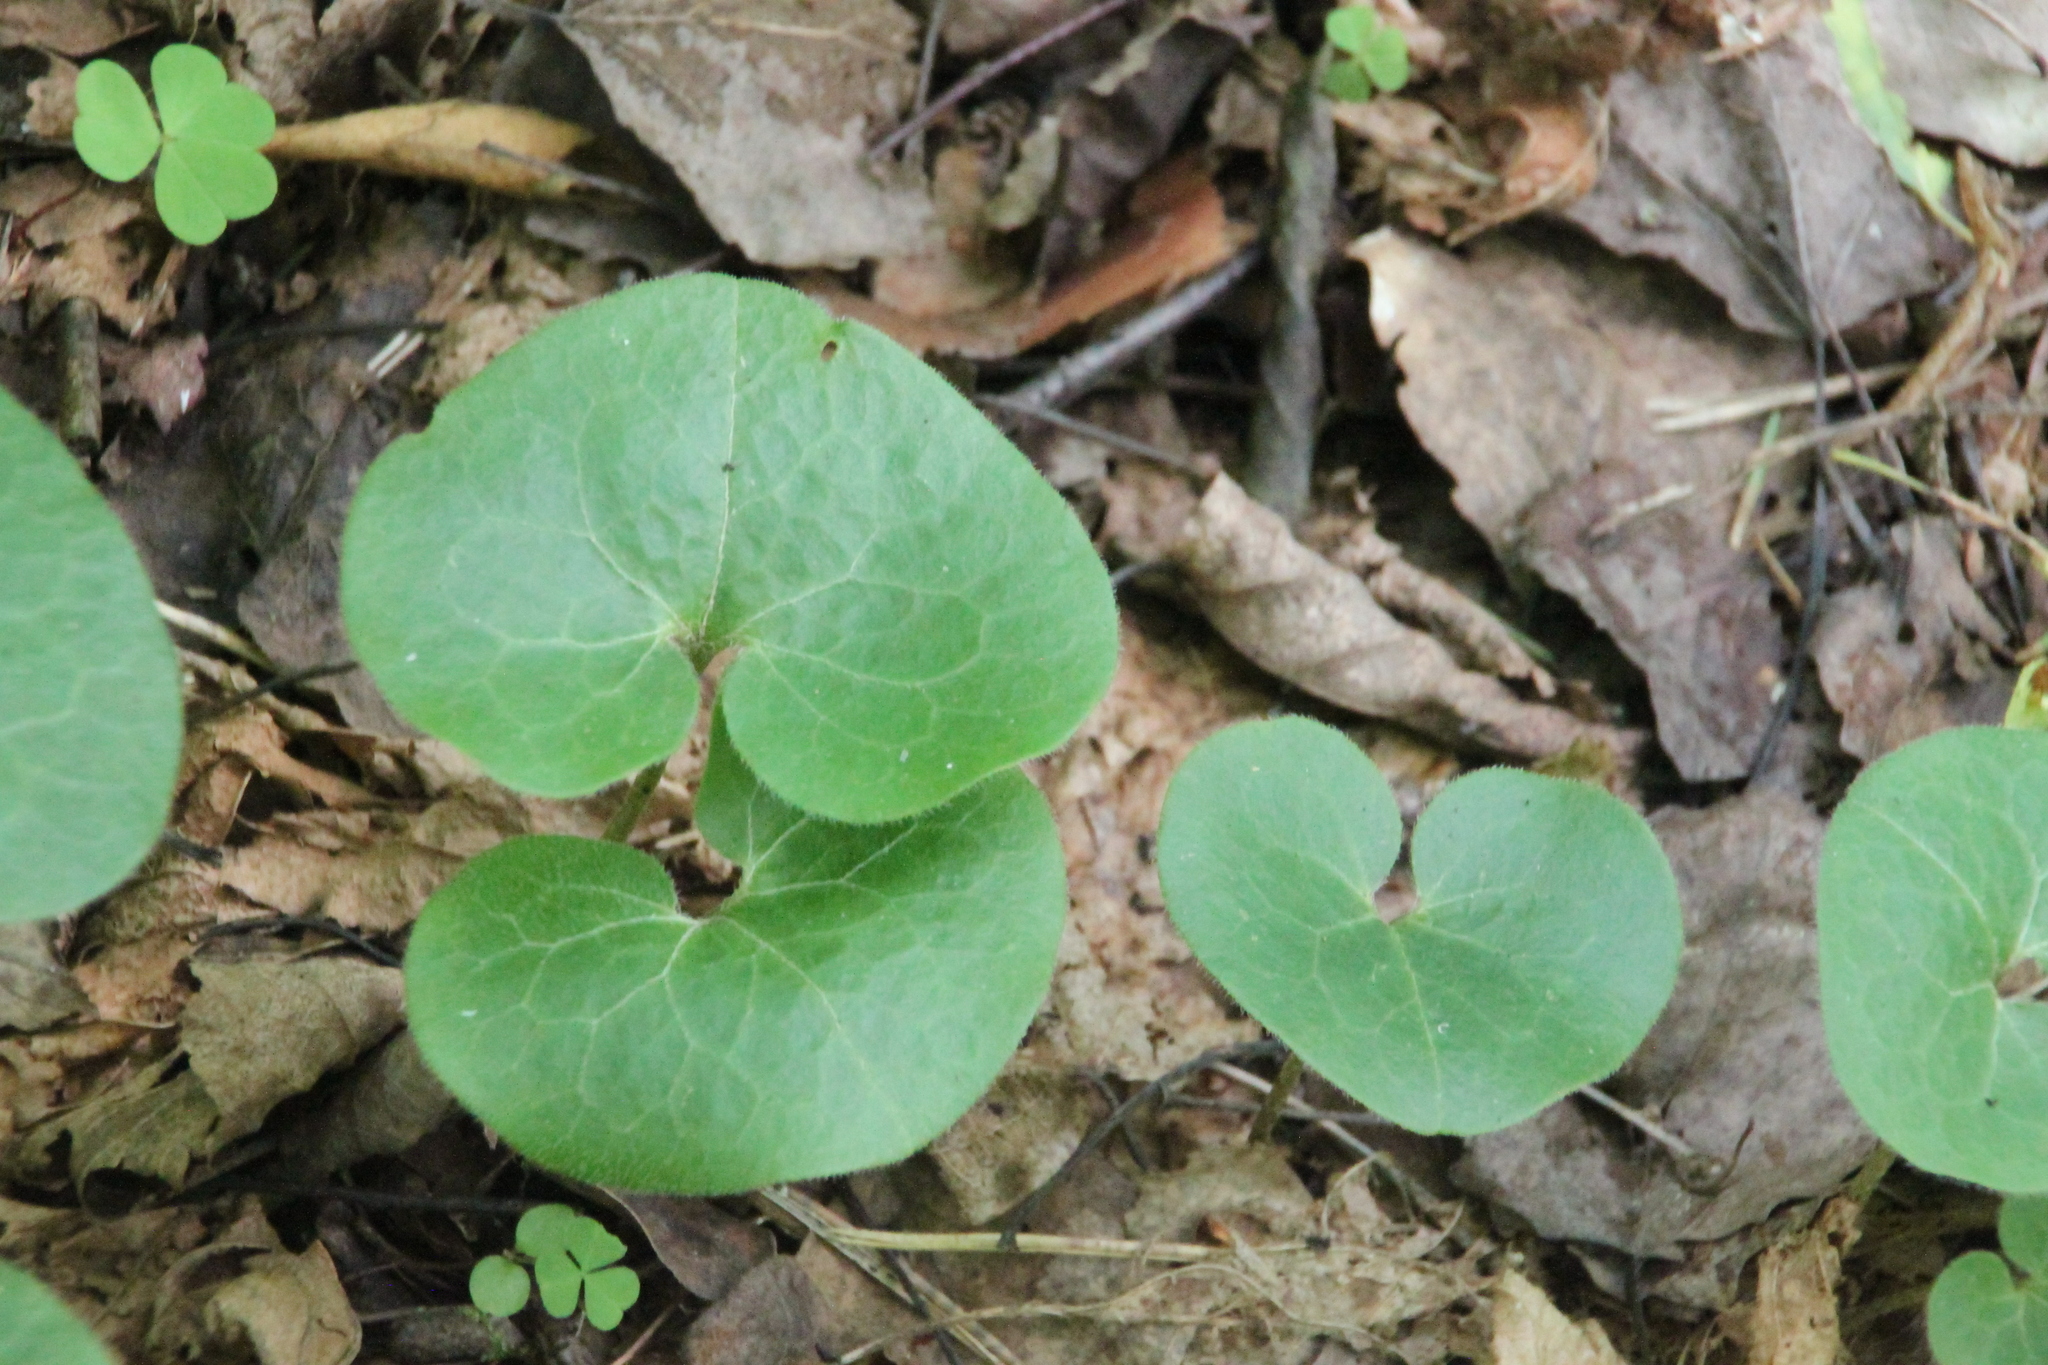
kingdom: Plantae
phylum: Tracheophyta
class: Magnoliopsida
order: Piperales
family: Aristolochiaceae
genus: Asarum
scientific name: Asarum europaeum
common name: Asarabacca
